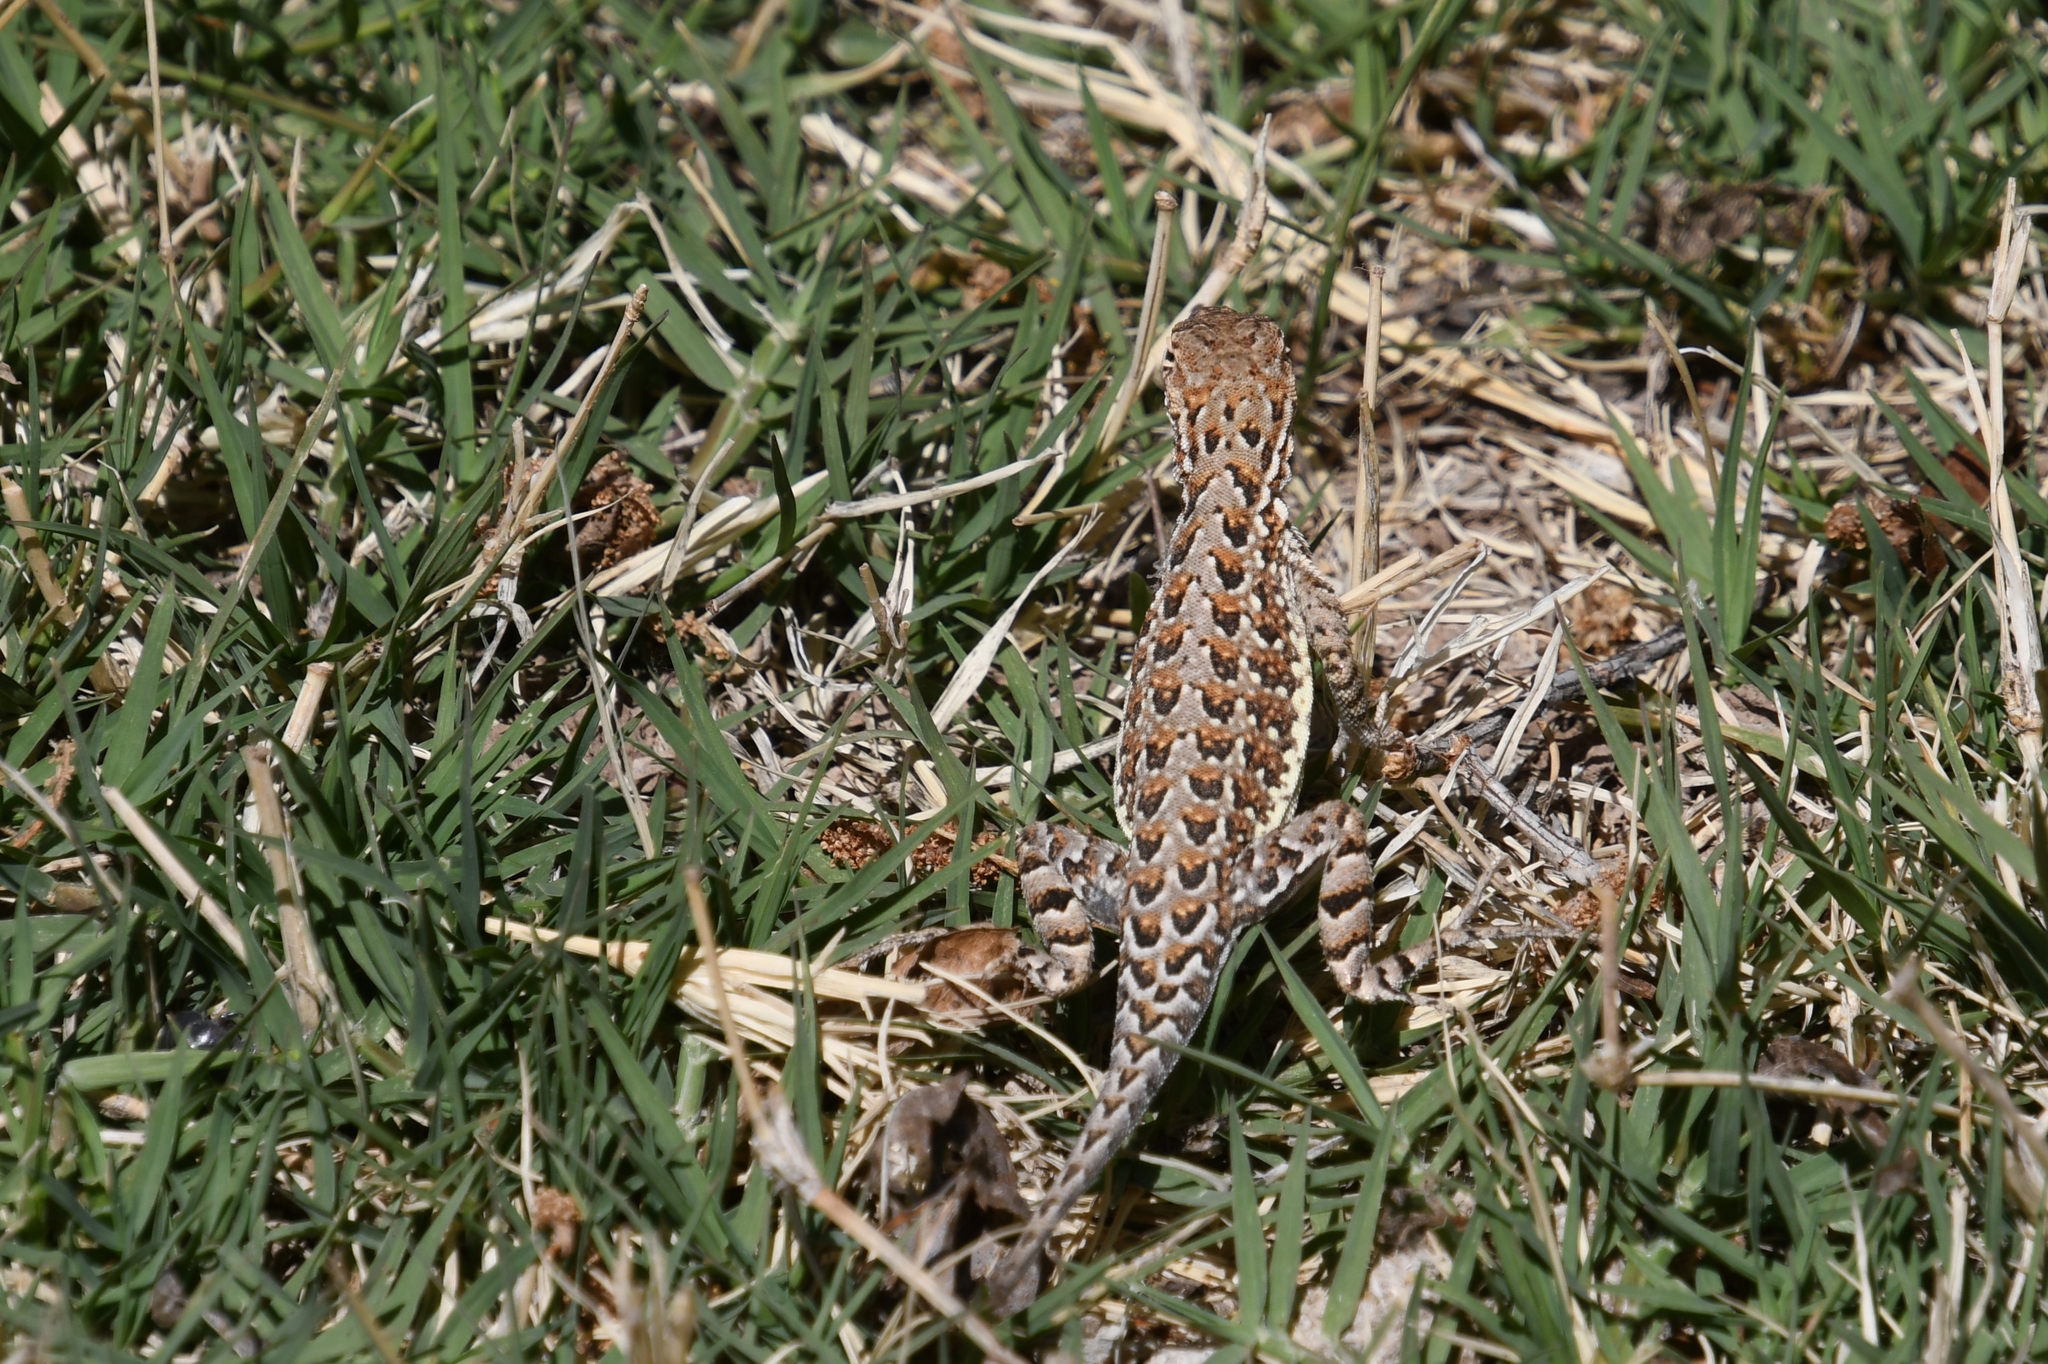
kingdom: Animalia
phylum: Chordata
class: Squamata
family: Phrynosomatidae
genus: Holbrookia
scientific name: Holbrookia elegans
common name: Elegant earless lizard
